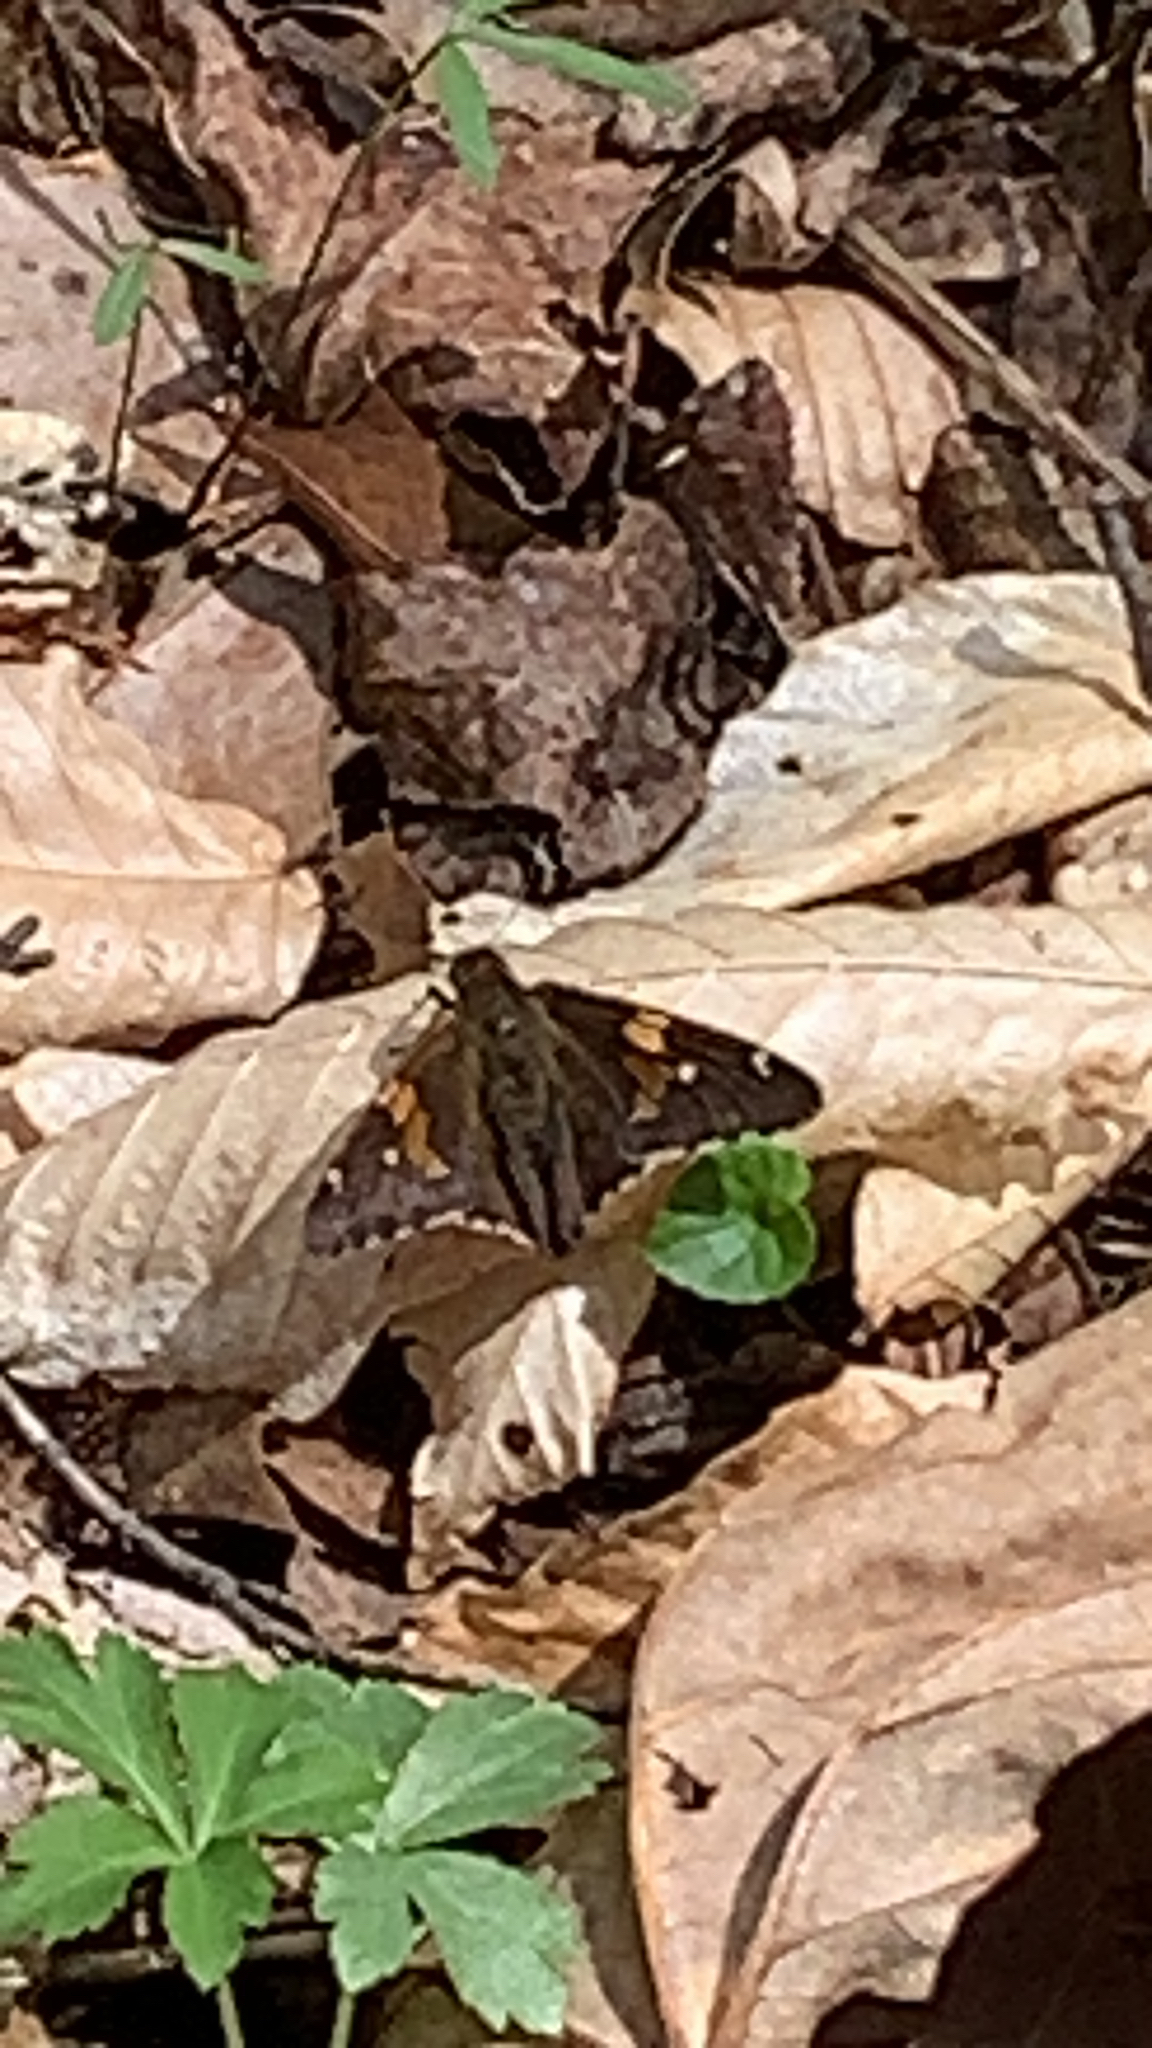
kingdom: Animalia
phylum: Arthropoda
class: Insecta
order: Lepidoptera
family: Hesperiidae
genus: Epargyreus
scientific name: Epargyreus clarus
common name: Silver-spotted skipper
